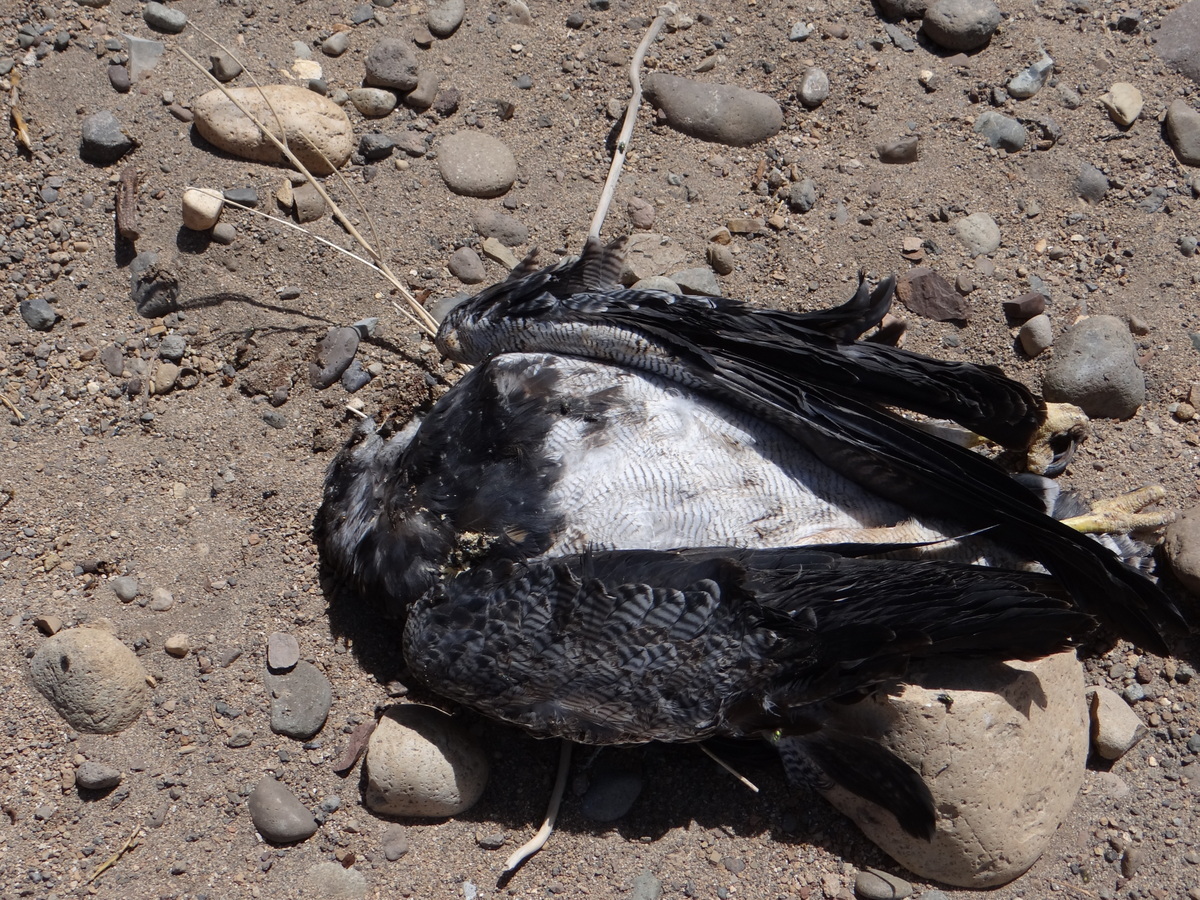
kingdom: Animalia
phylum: Chordata
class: Aves
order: Accipitriformes
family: Accipitridae
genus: Geranoaetus
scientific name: Geranoaetus melanoleucus
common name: Black-chested buzzard-eagle
